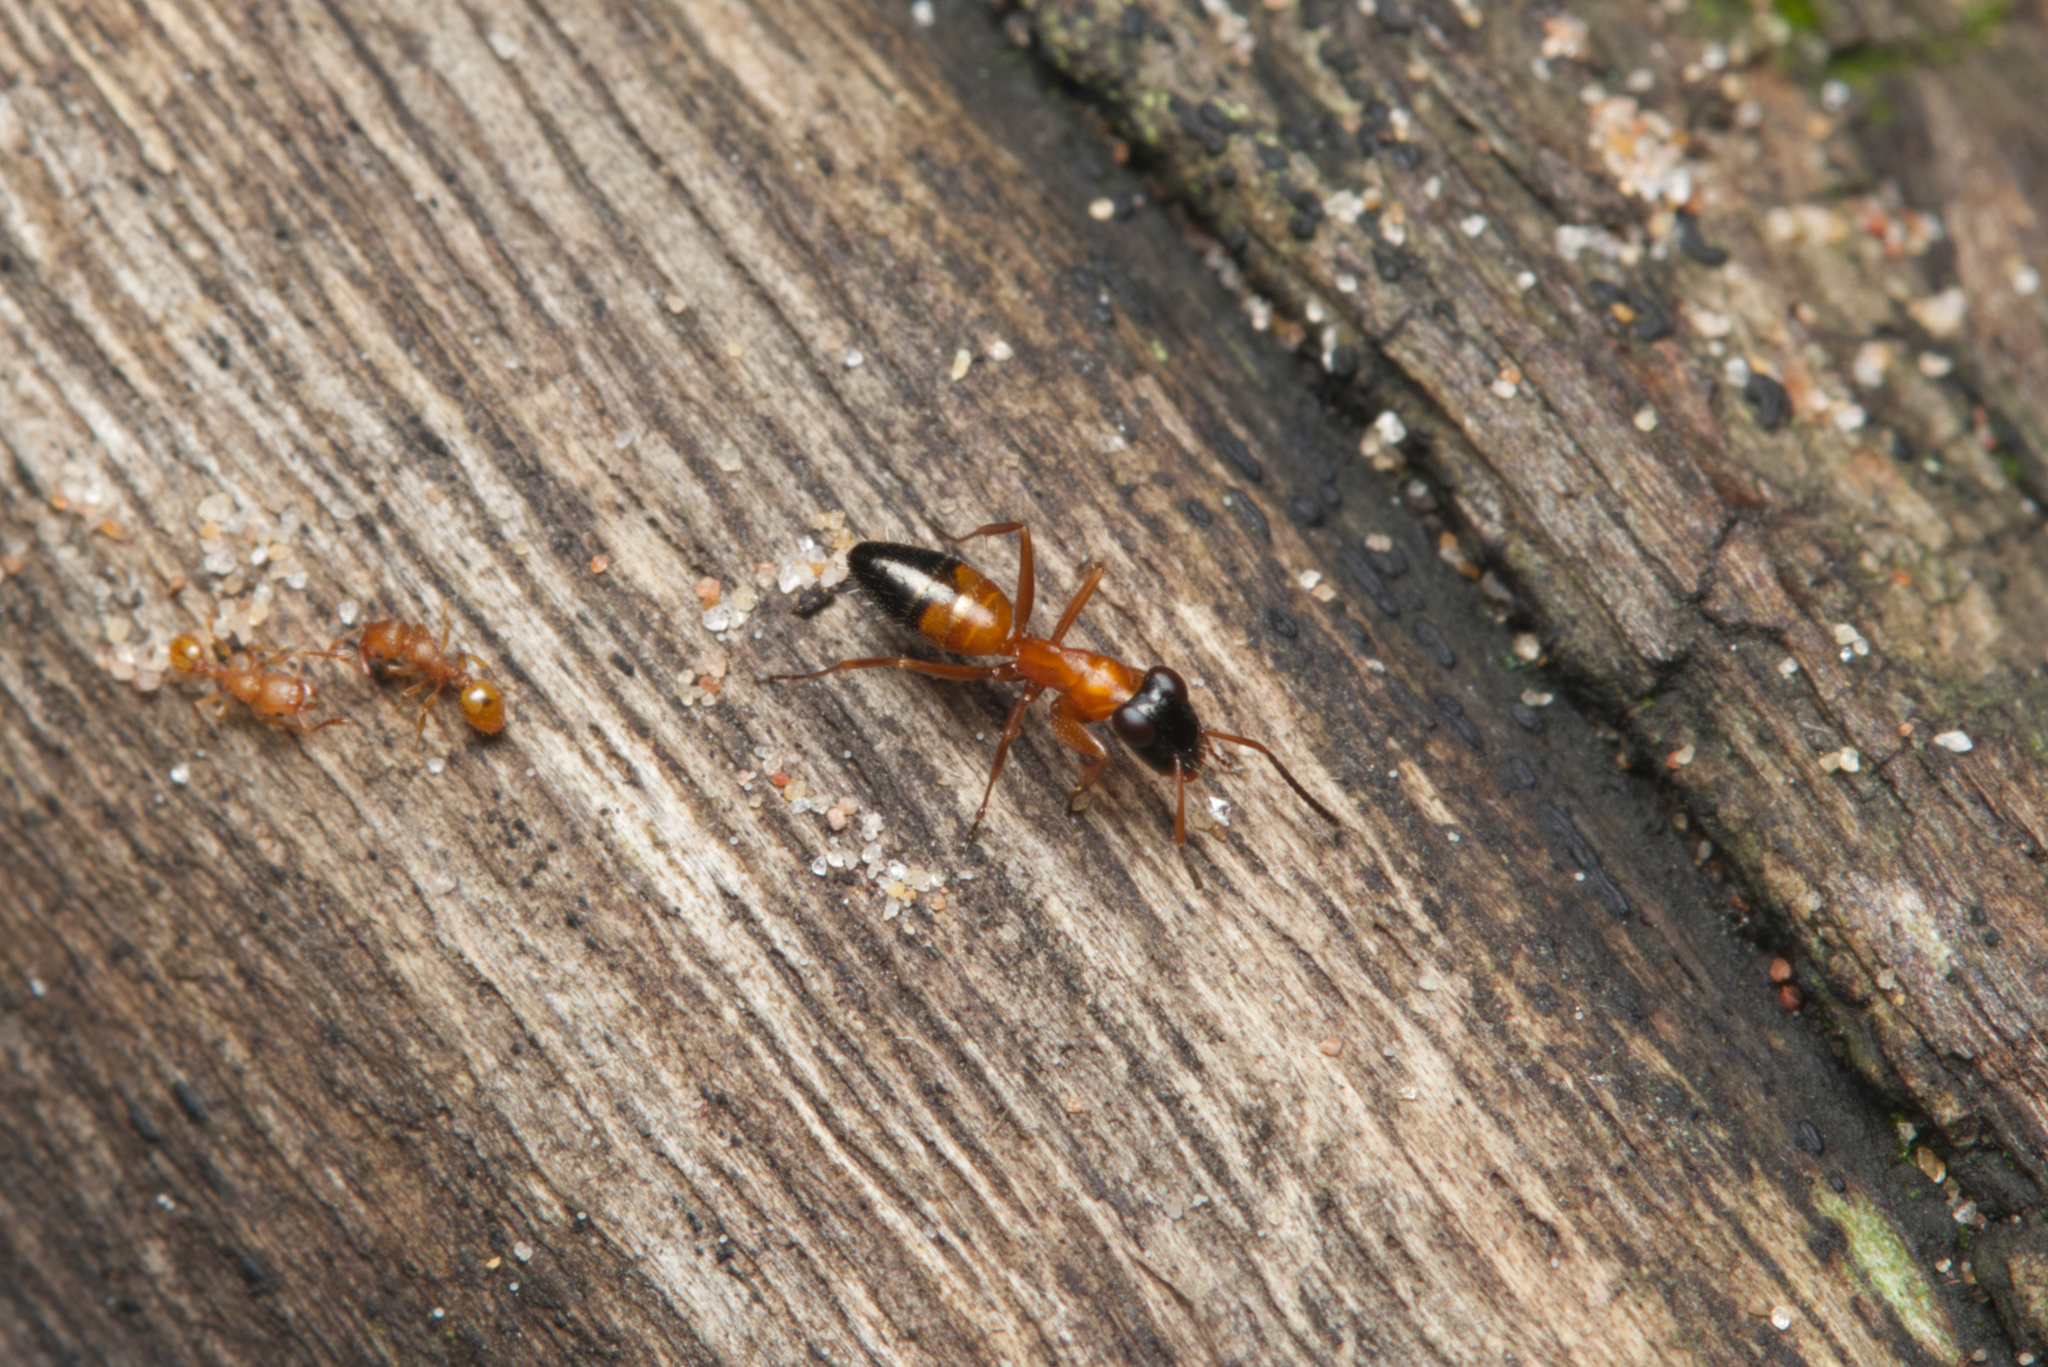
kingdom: Animalia
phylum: Arthropoda
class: Insecta
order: Hymenoptera
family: Formicidae
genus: Opisthopsis
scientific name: Opisthopsis rufithorax
